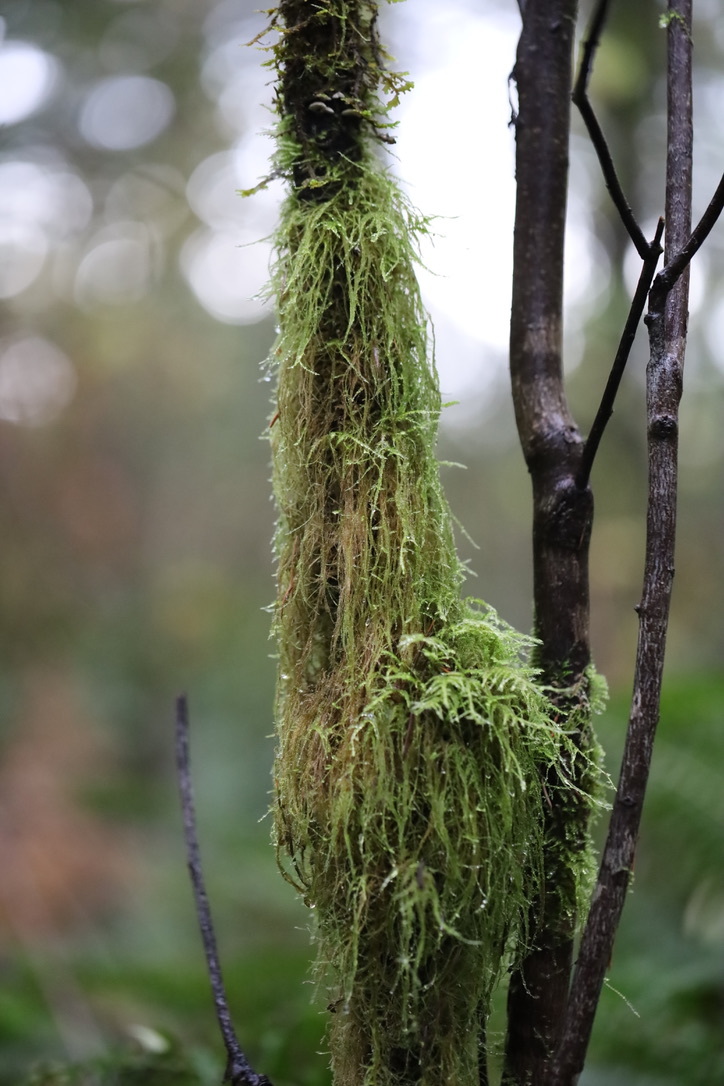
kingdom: Plantae
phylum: Bryophyta
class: Bryopsida
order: Hypnales
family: Lembophyllaceae
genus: Pseudisothecium
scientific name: Pseudisothecium stoloniferum
